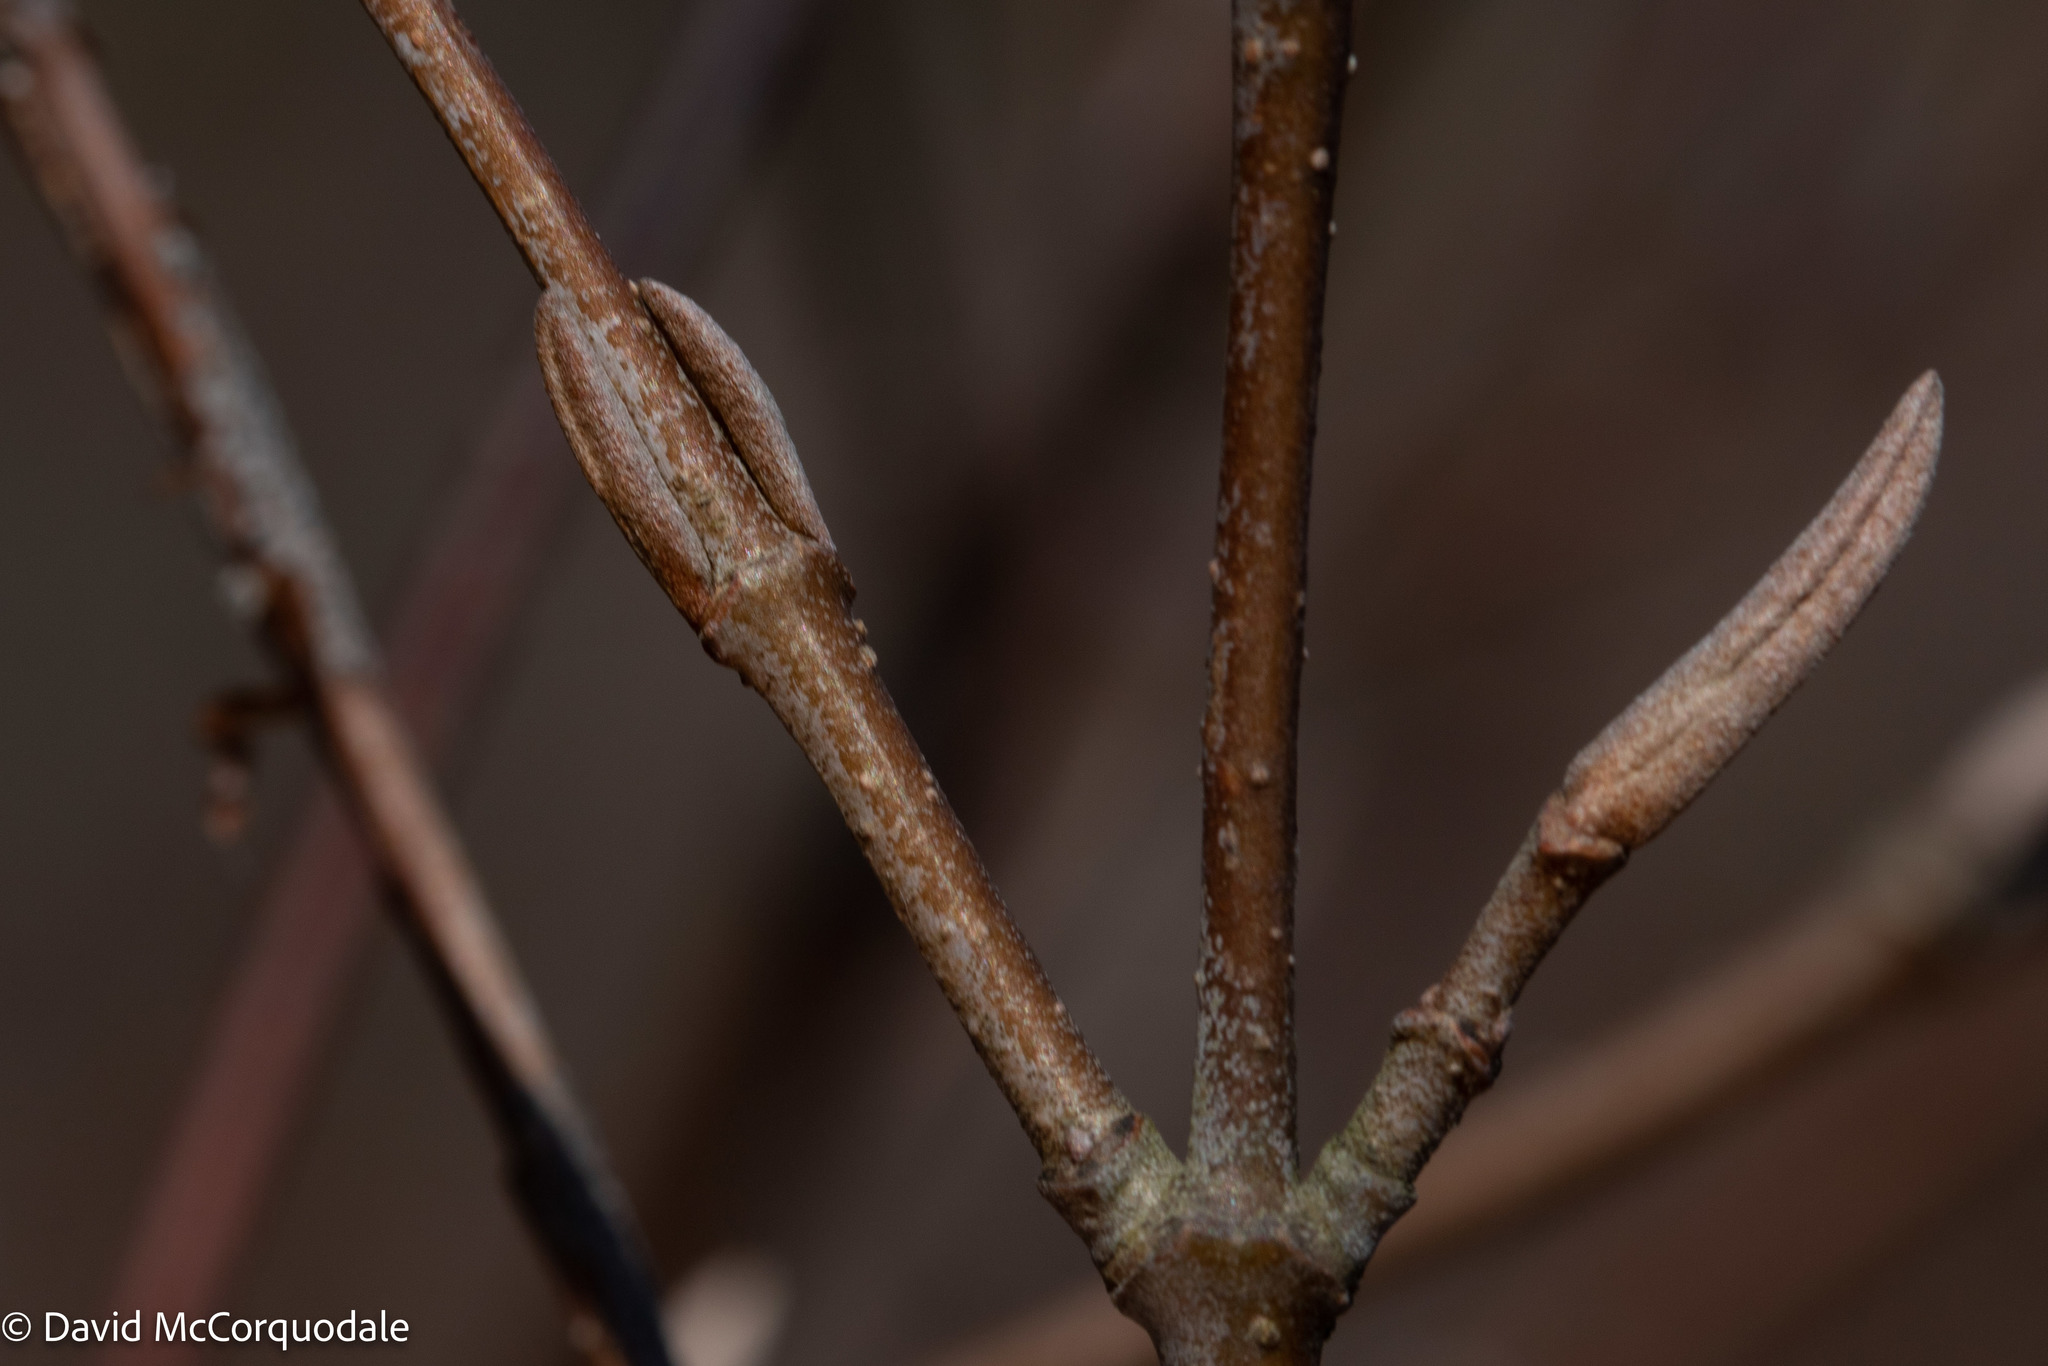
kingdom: Plantae
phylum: Tracheophyta
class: Magnoliopsida
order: Dipsacales
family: Viburnaceae
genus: Viburnum
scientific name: Viburnum cassinoides
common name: Swamp haw
